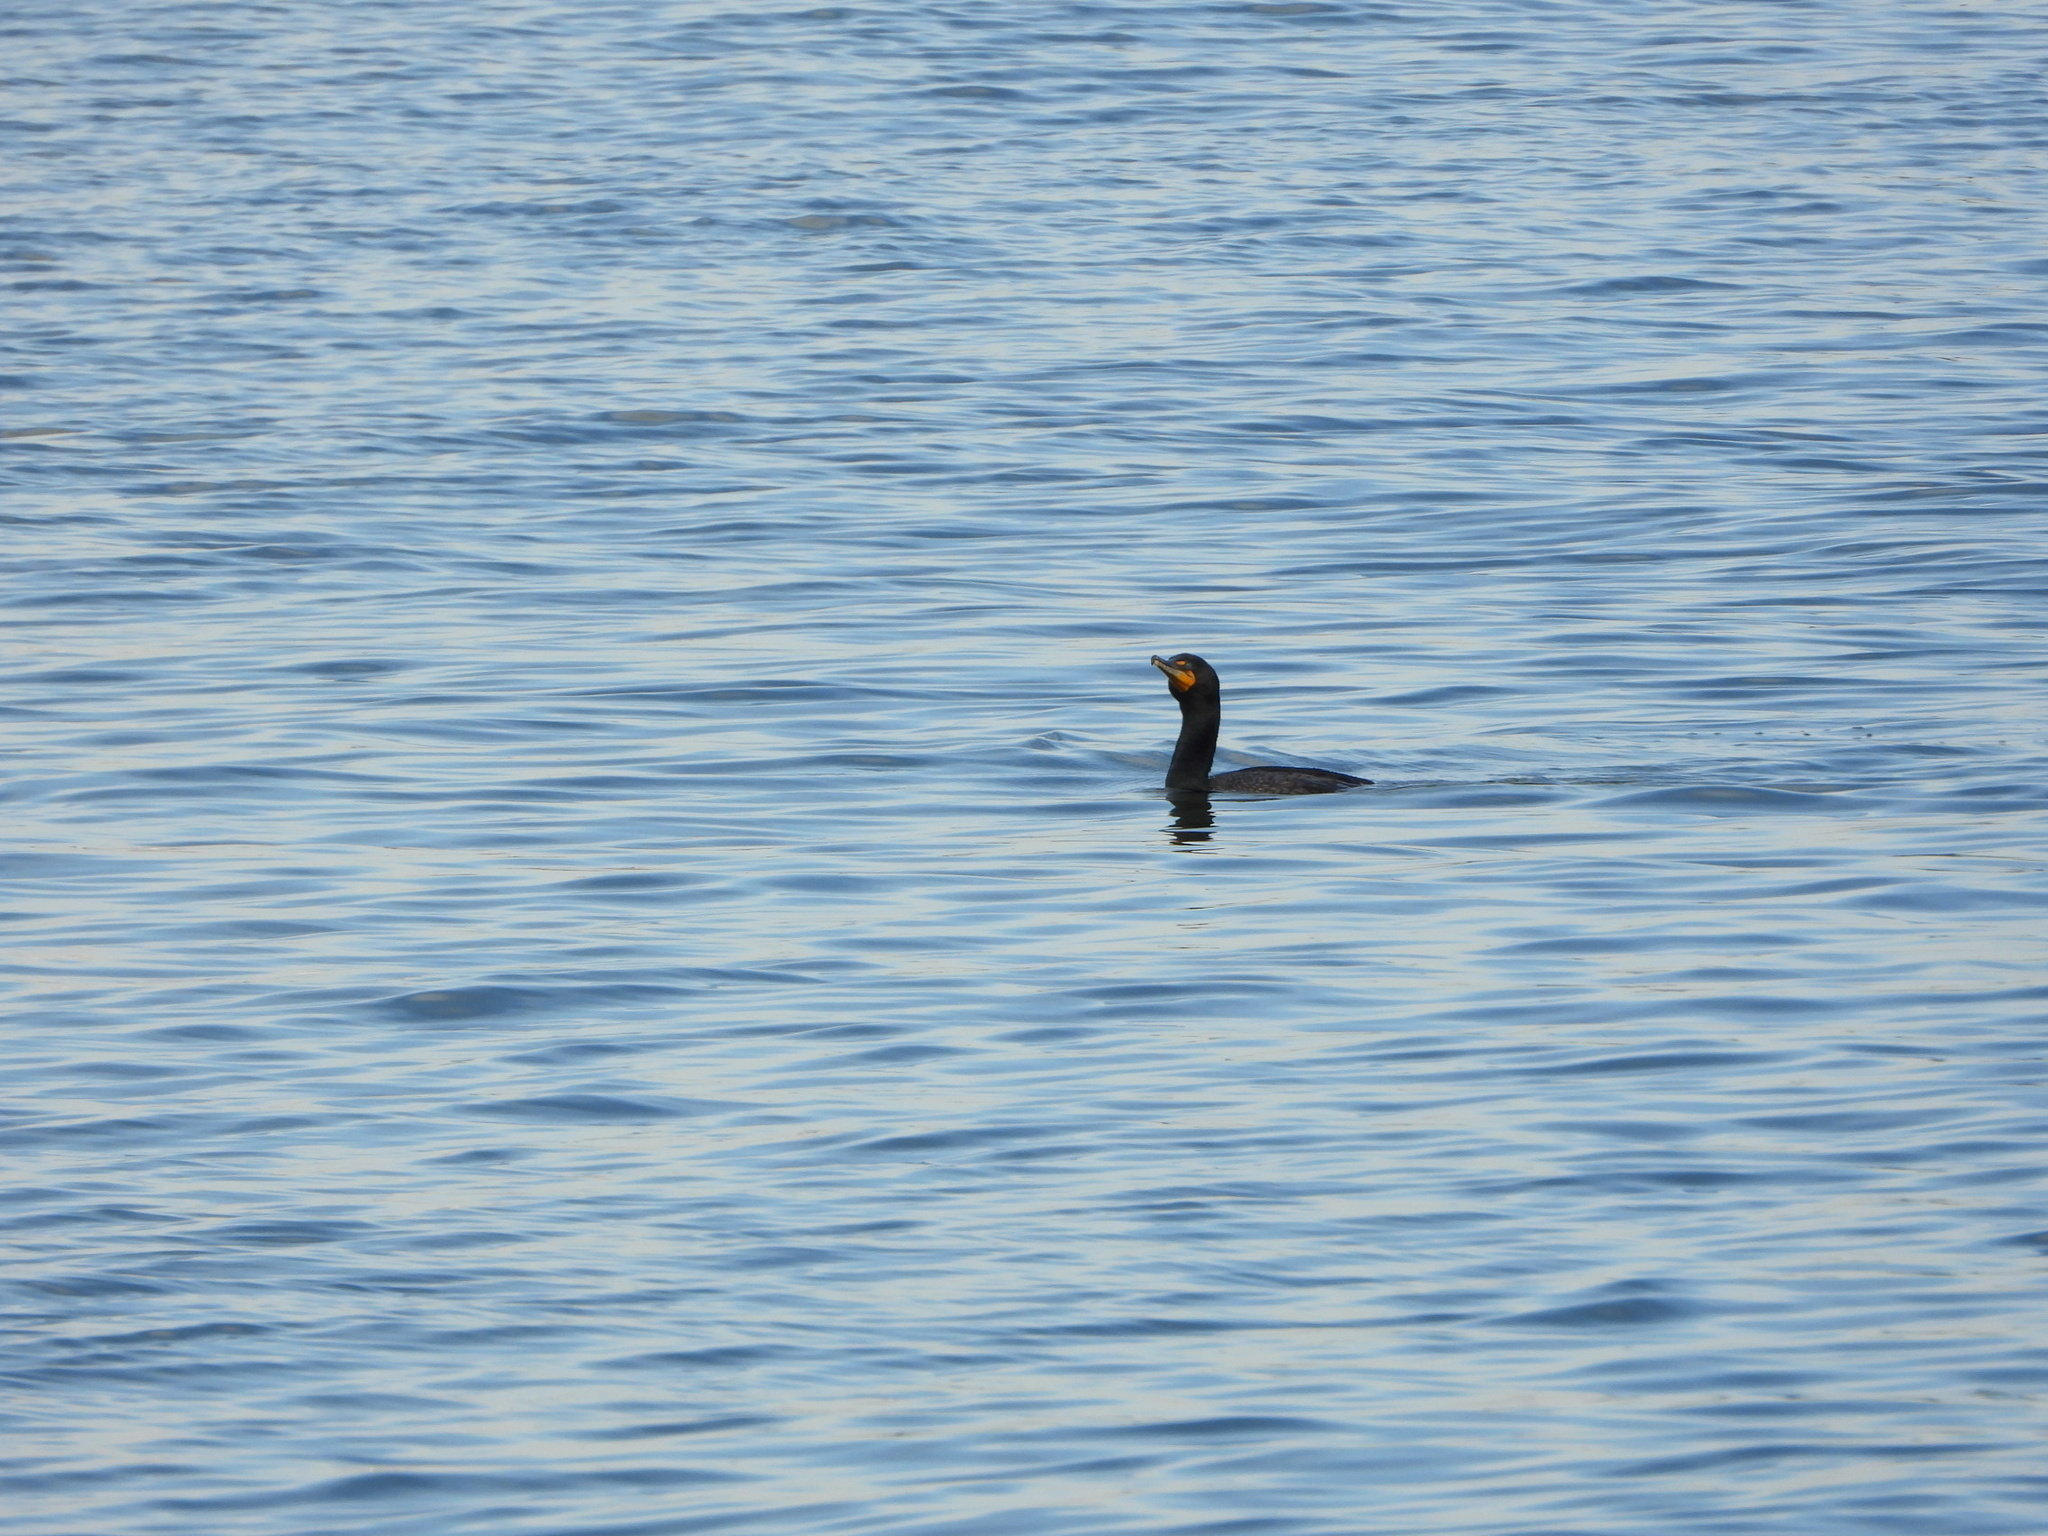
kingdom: Animalia
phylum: Chordata
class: Aves
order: Suliformes
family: Phalacrocoracidae
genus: Phalacrocorax
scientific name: Phalacrocorax auritus
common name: Double-crested cormorant
